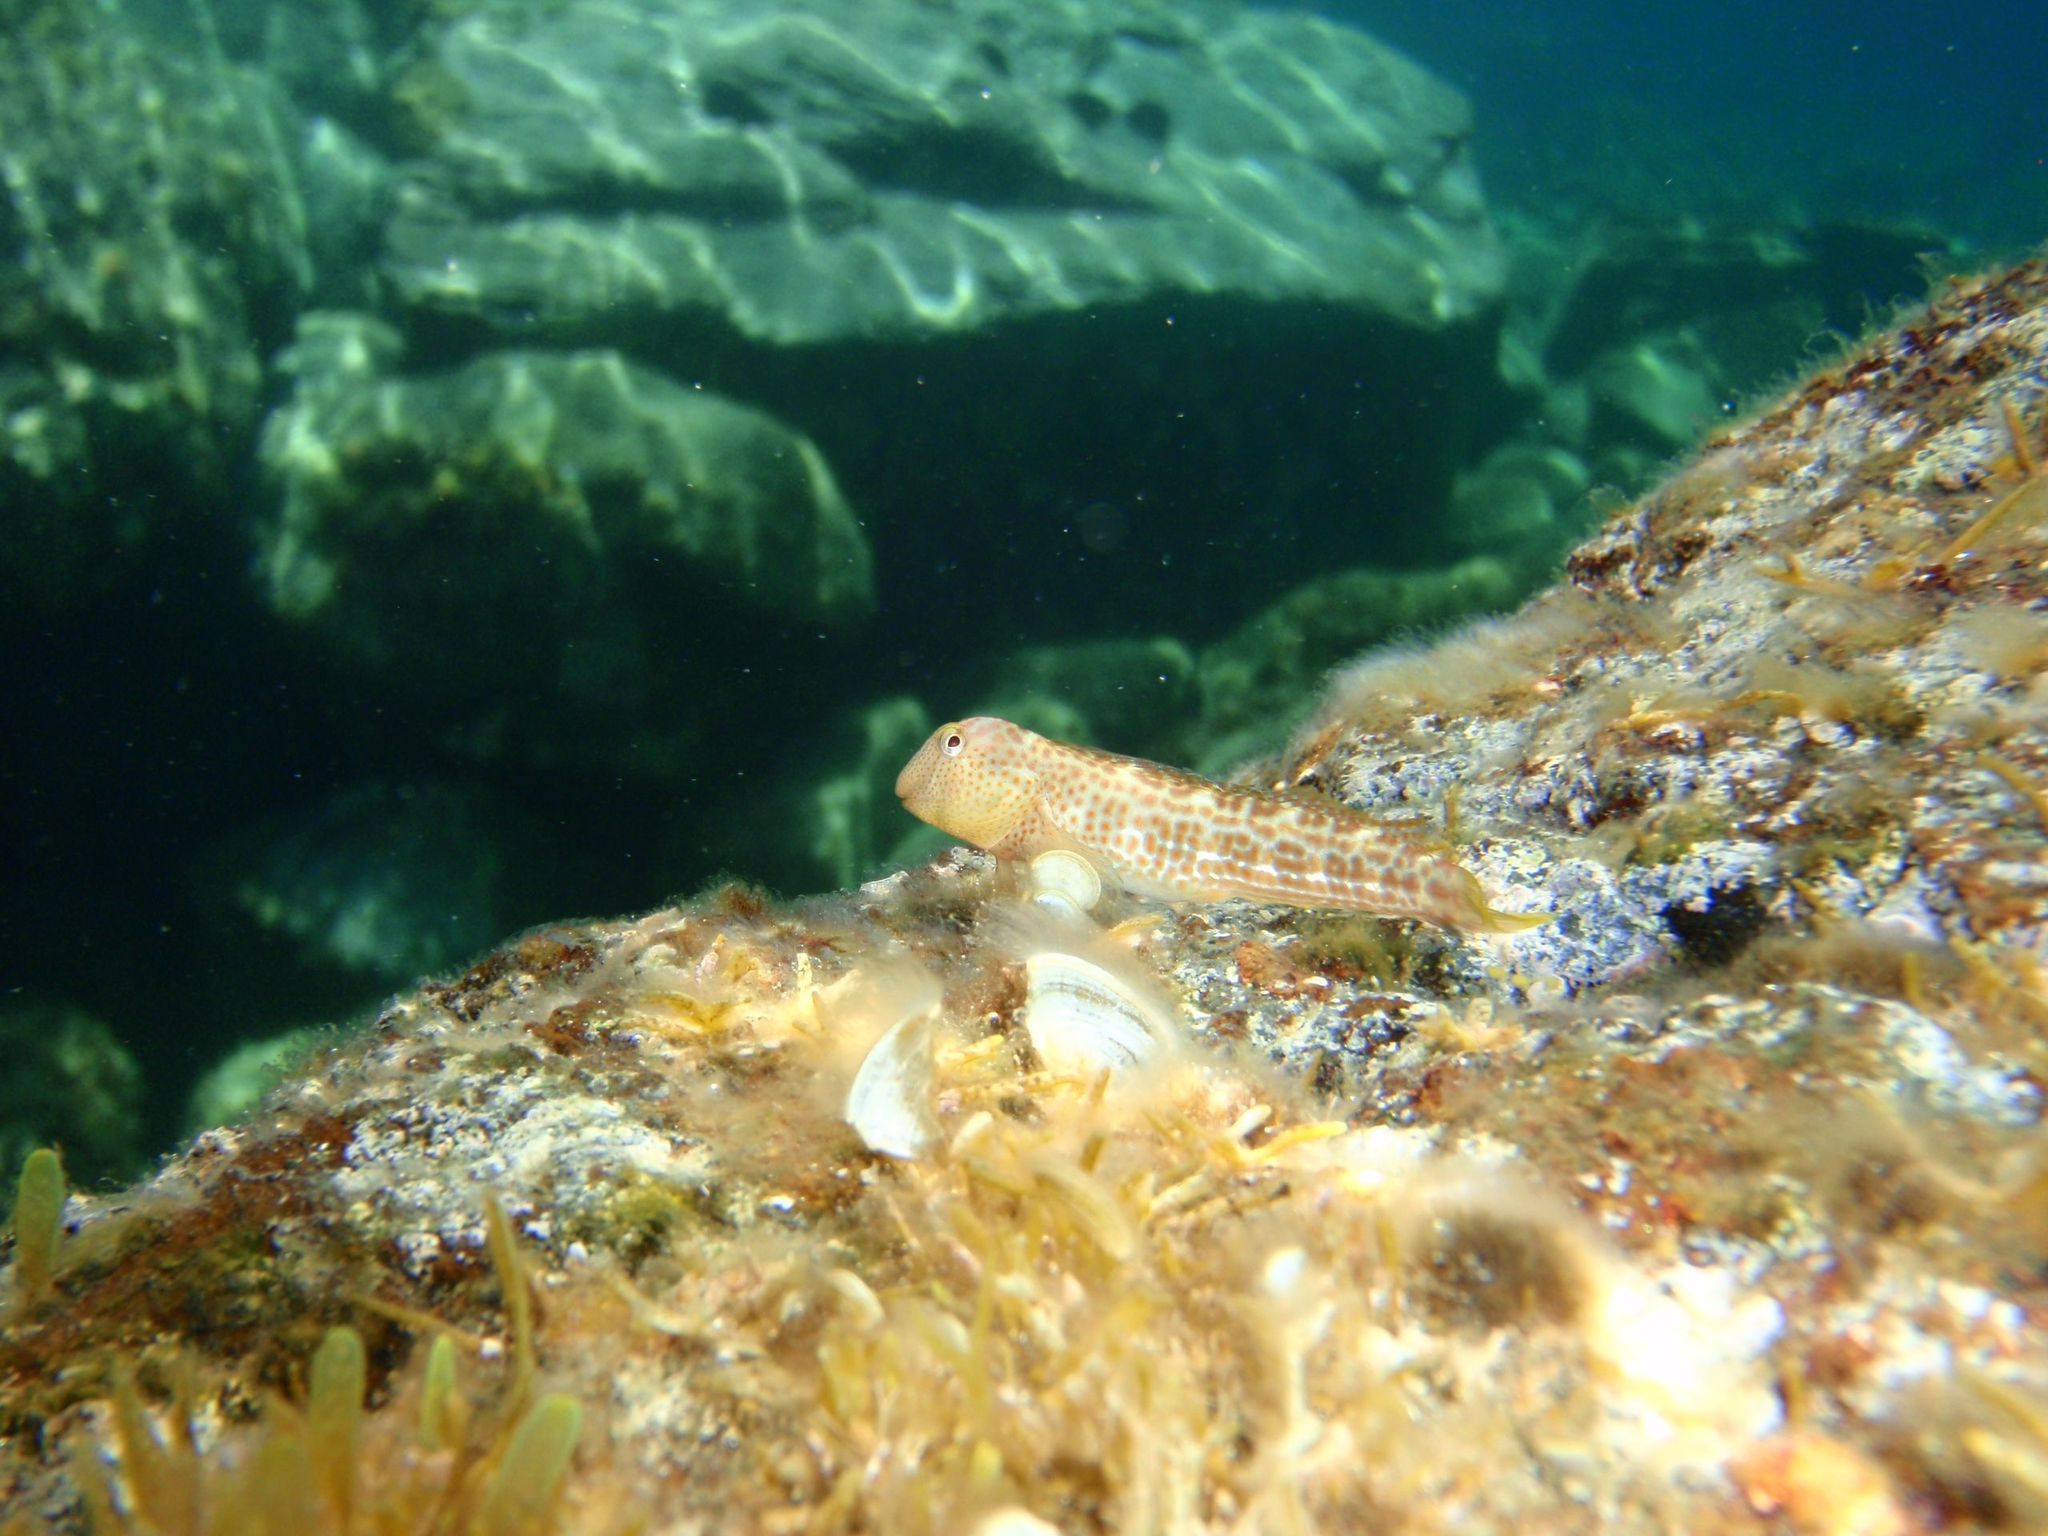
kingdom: Animalia
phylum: Chordata
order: Perciformes
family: Blenniidae
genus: Microlipophrys
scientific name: Microlipophrys canevae
